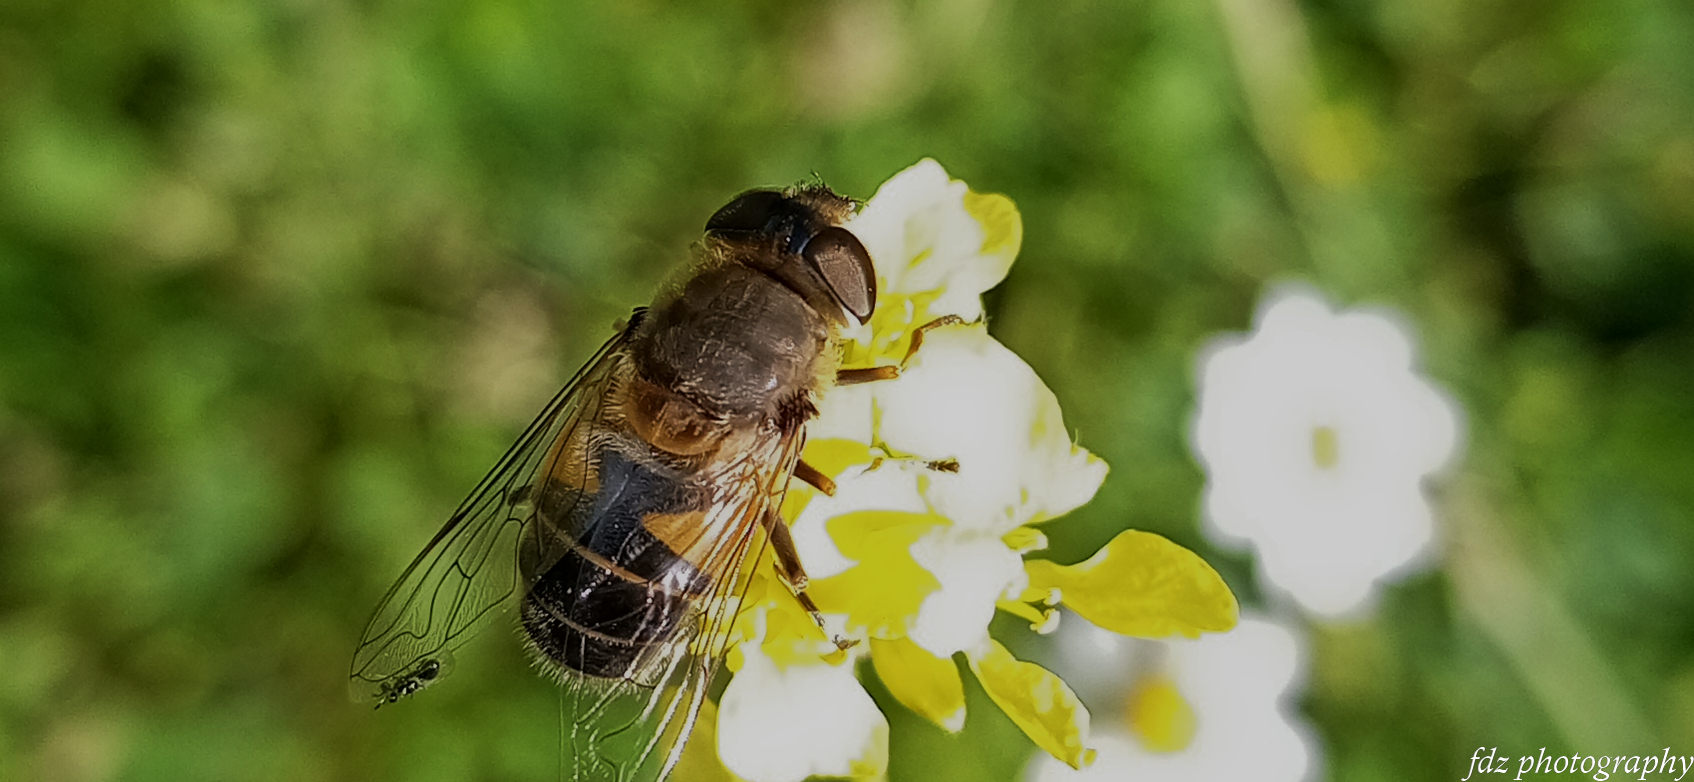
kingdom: Animalia
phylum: Arthropoda
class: Insecta
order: Diptera
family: Syrphidae
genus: Eristalis
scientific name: Eristalis pertinax
